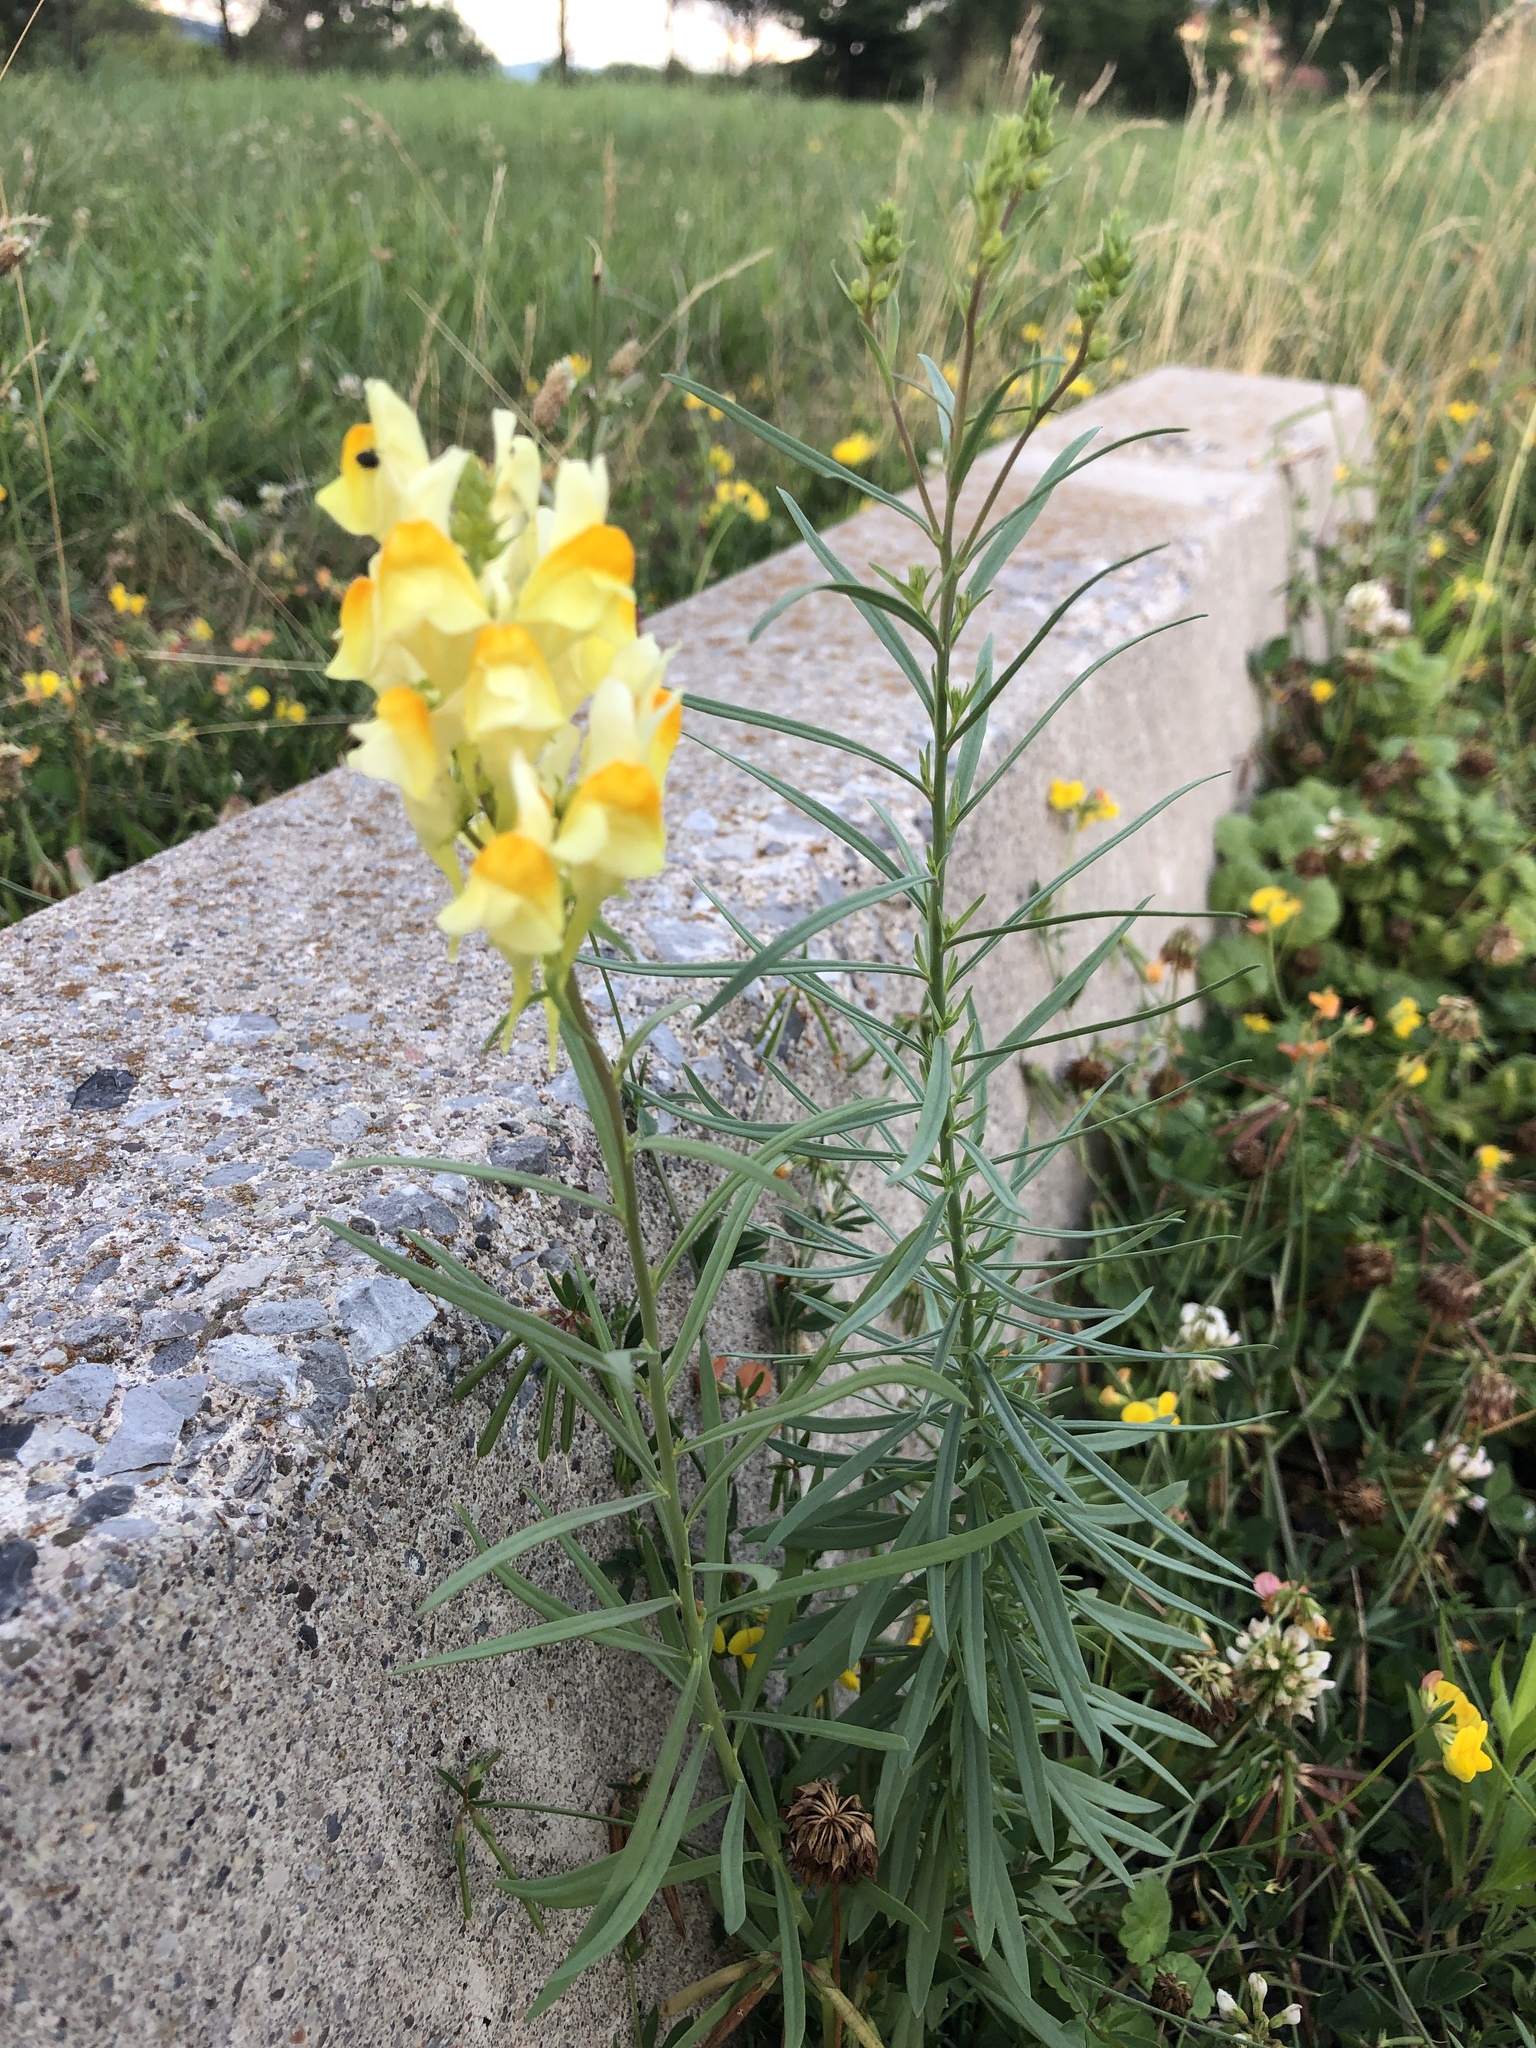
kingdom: Plantae
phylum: Tracheophyta
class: Magnoliopsida
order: Lamiales
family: Plantaginaceae
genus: Linaria
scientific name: Linaria vulgaris
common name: Butter and eggs
